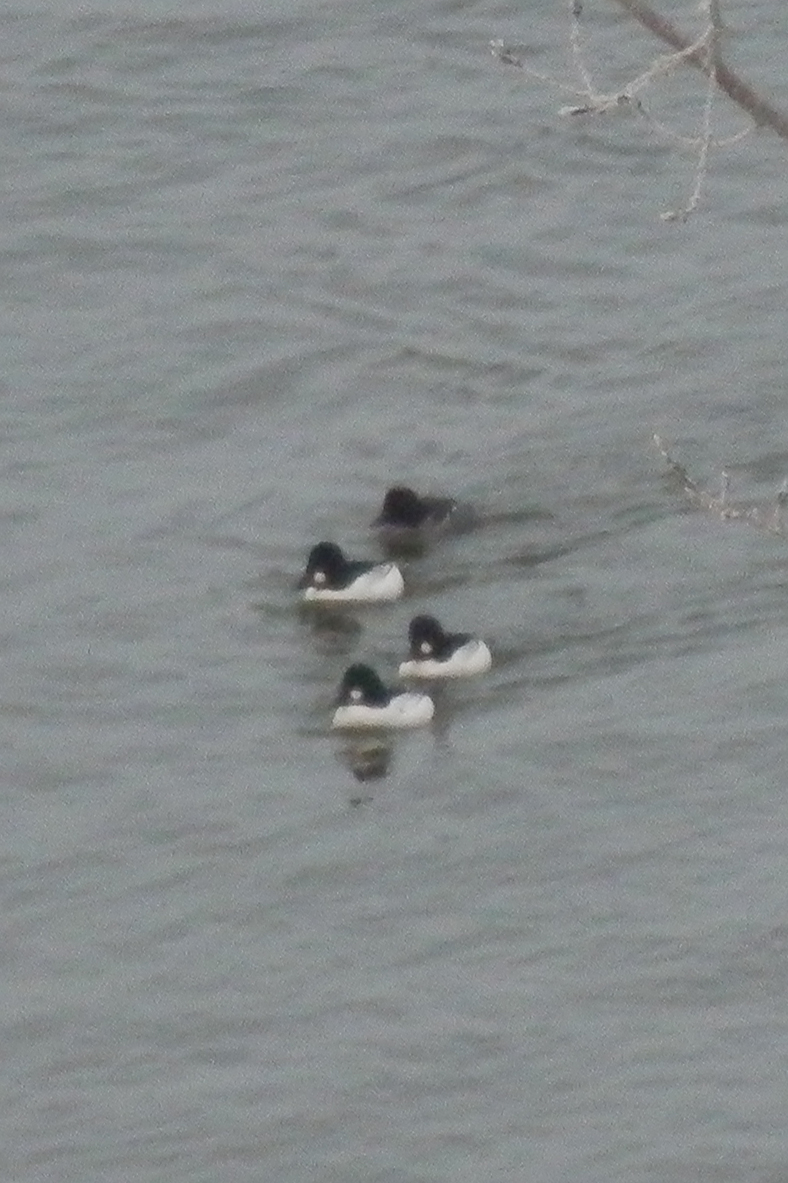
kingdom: Animalia
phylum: Chordata
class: Aves
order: Anseriformes
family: Anatidae
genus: Bucephala
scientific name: Bucephala clangula
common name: Common goldeneye
